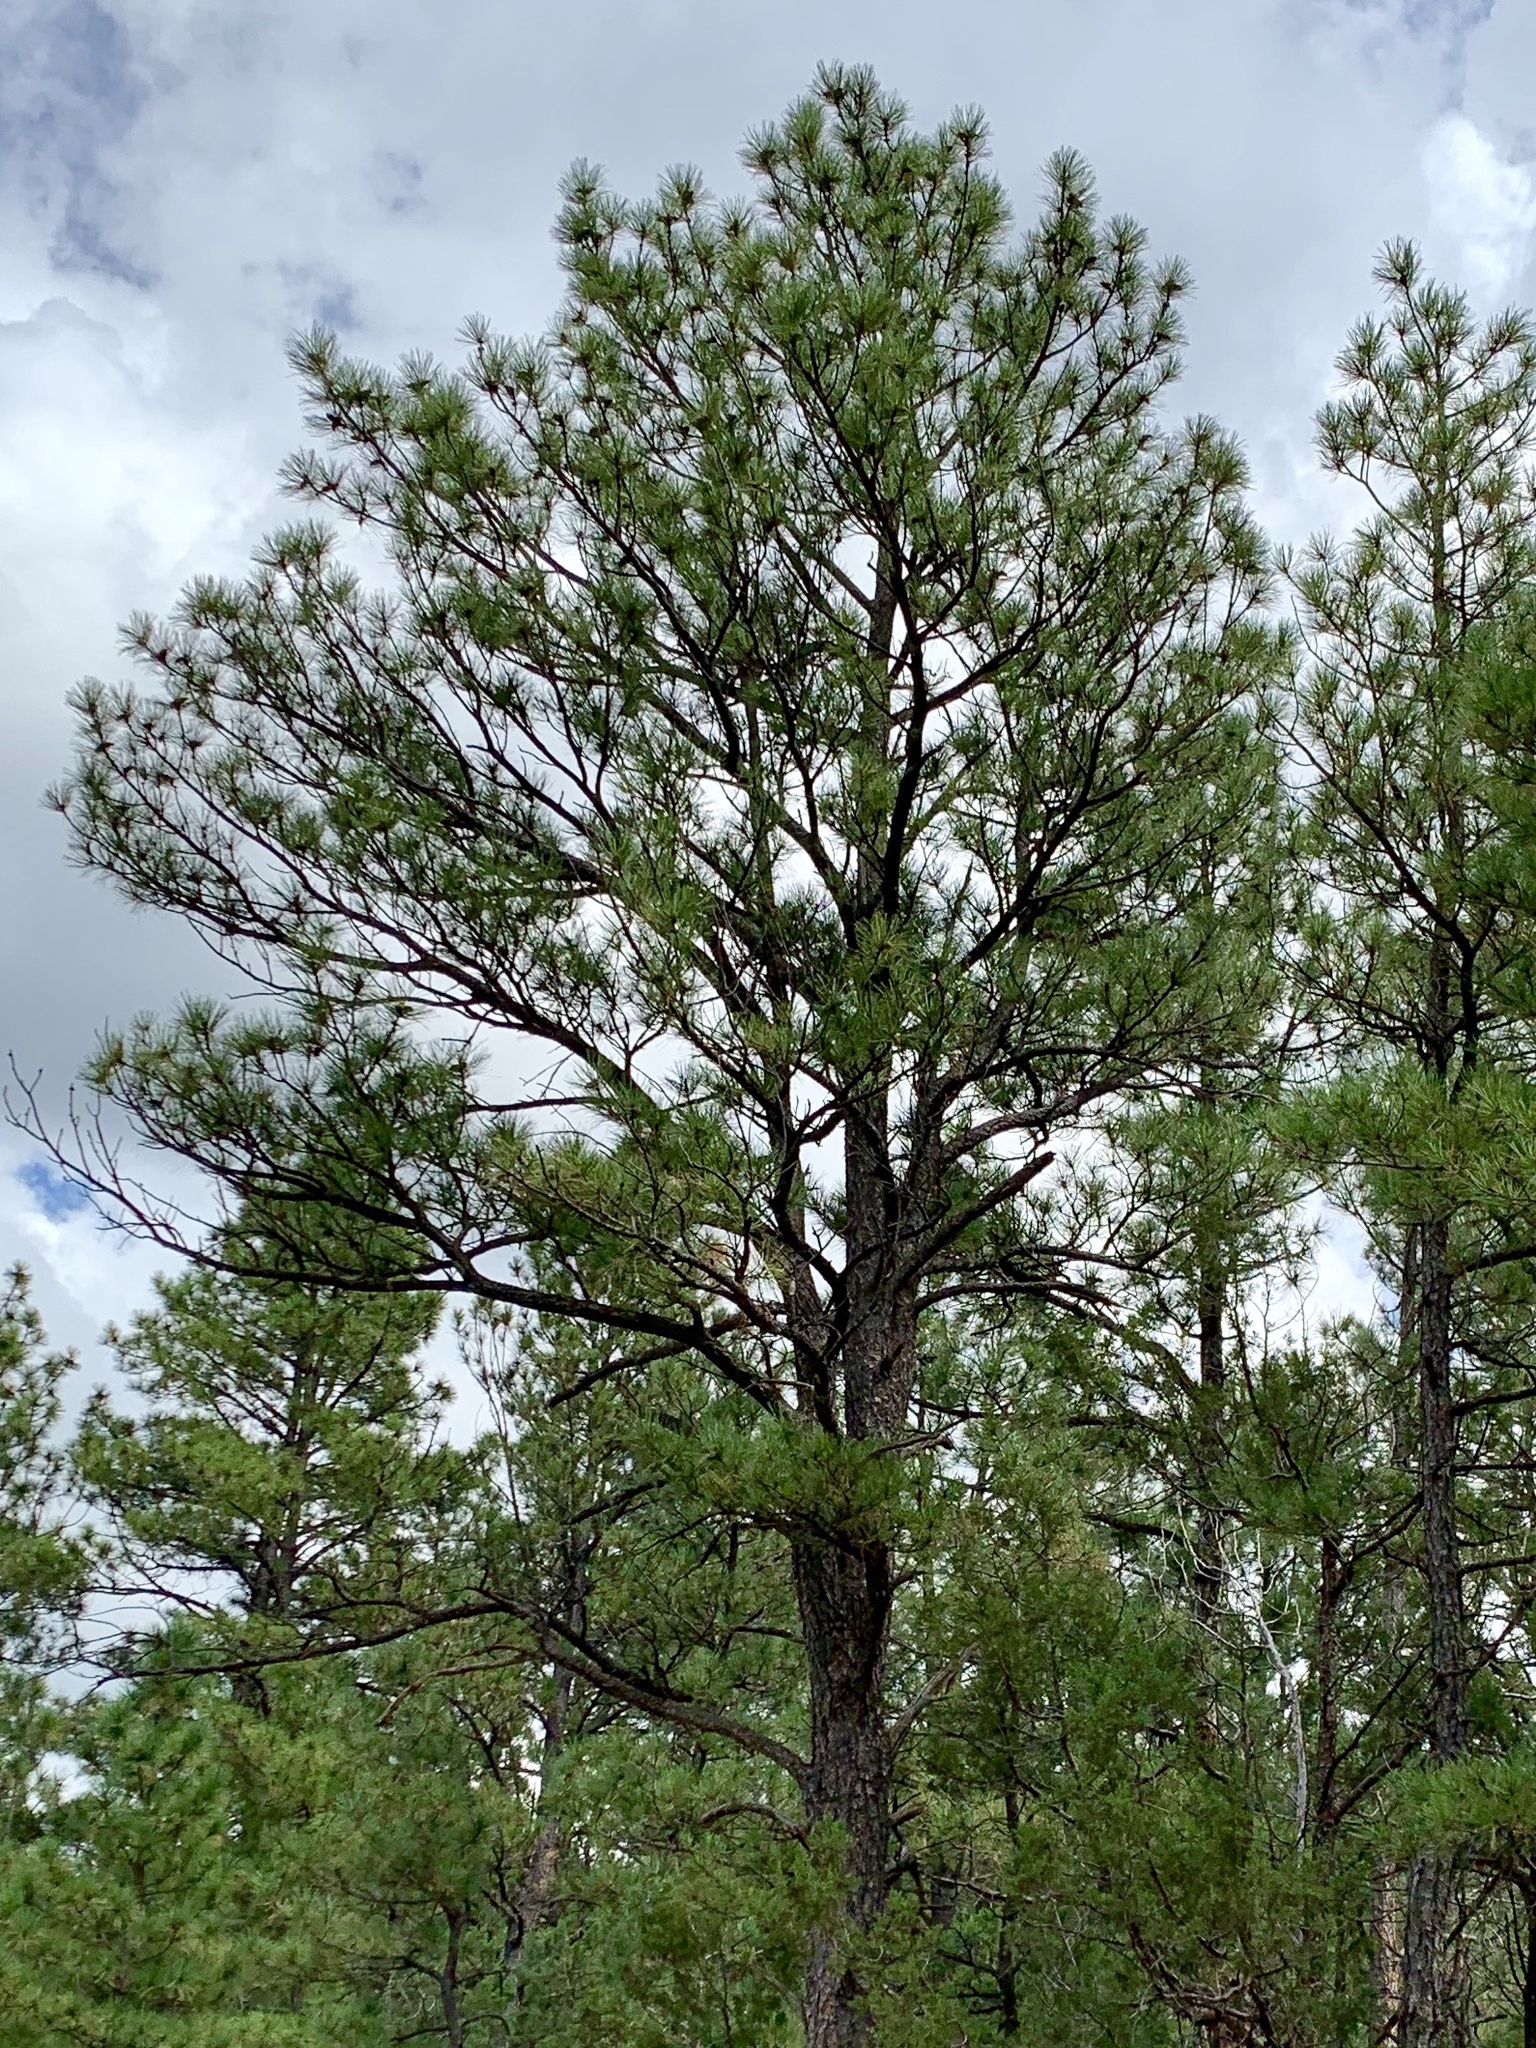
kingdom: Plantae
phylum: Tracheophyta
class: Pinopsida
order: Pinales
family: Pinaceae
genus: Pinus
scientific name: Pinus ponderosa
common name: Western yellow-pine
